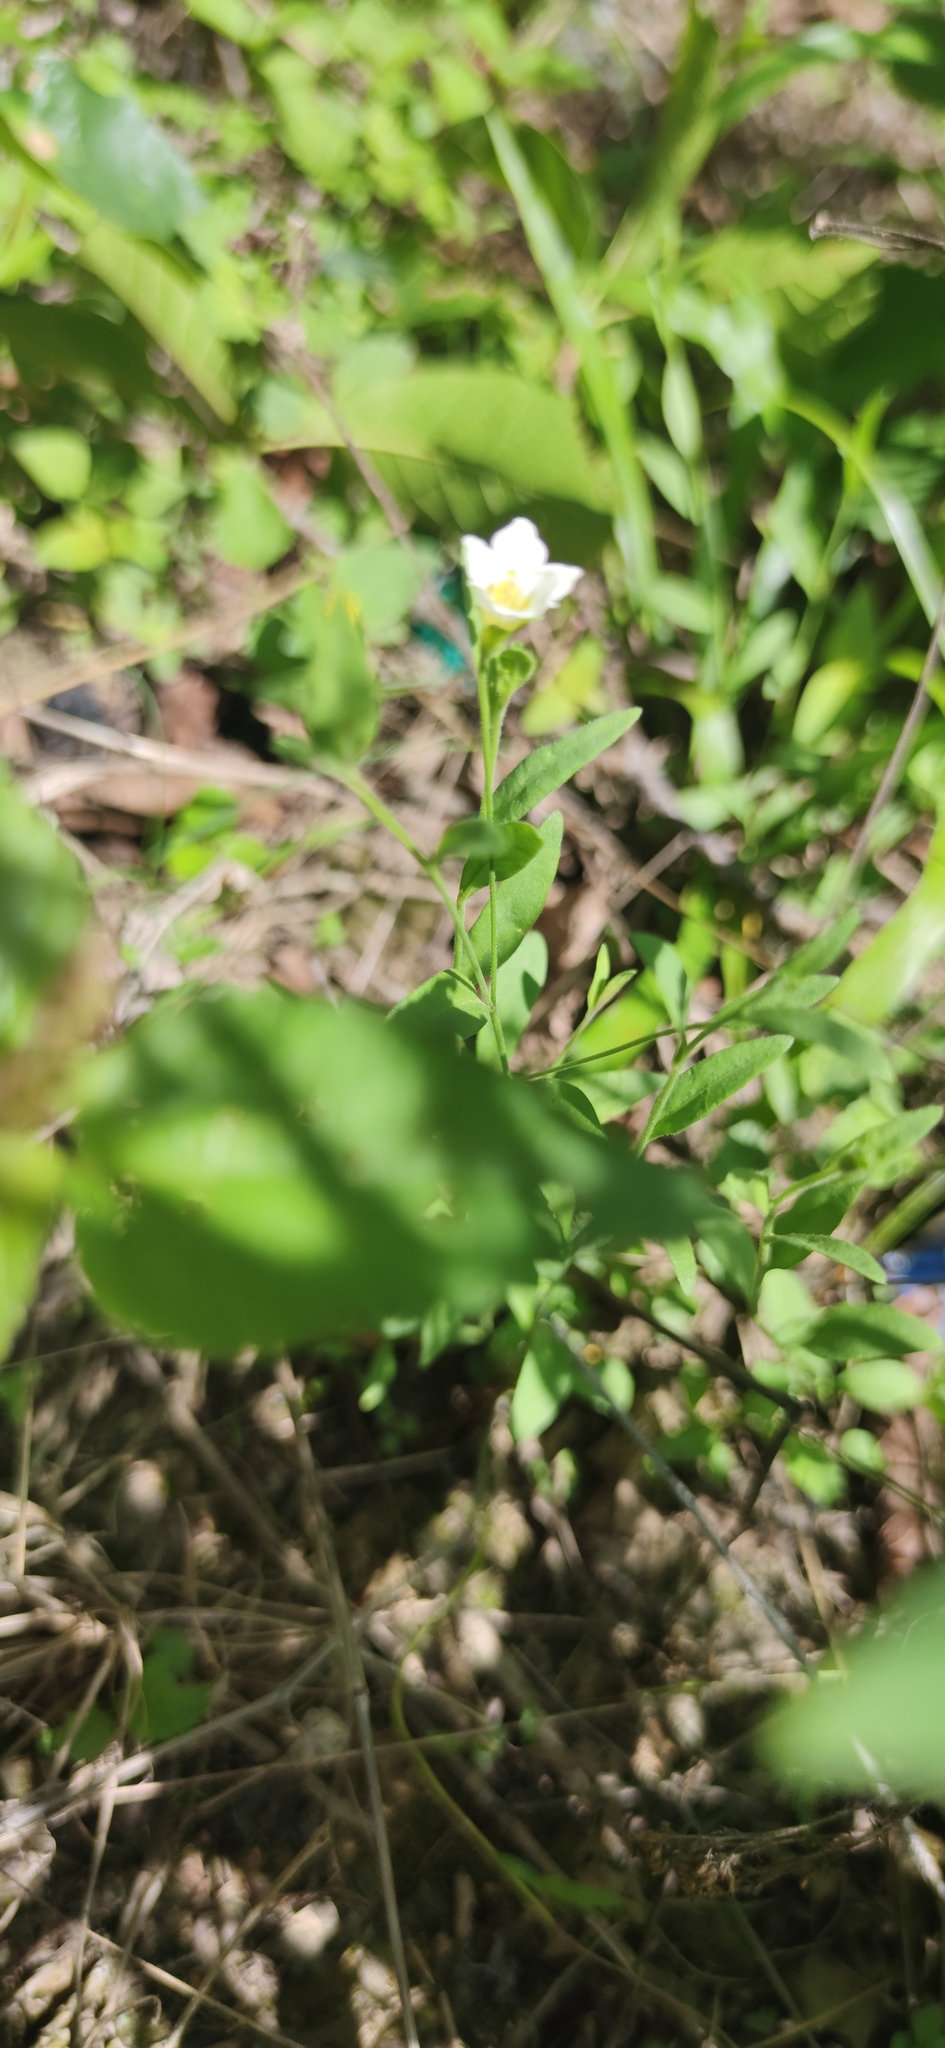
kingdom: Plantae
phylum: Tracheophyta
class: Magnoliopsida
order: Solanales
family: Solanaceae
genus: Salpiglossis
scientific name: Salpiglossis erecta
